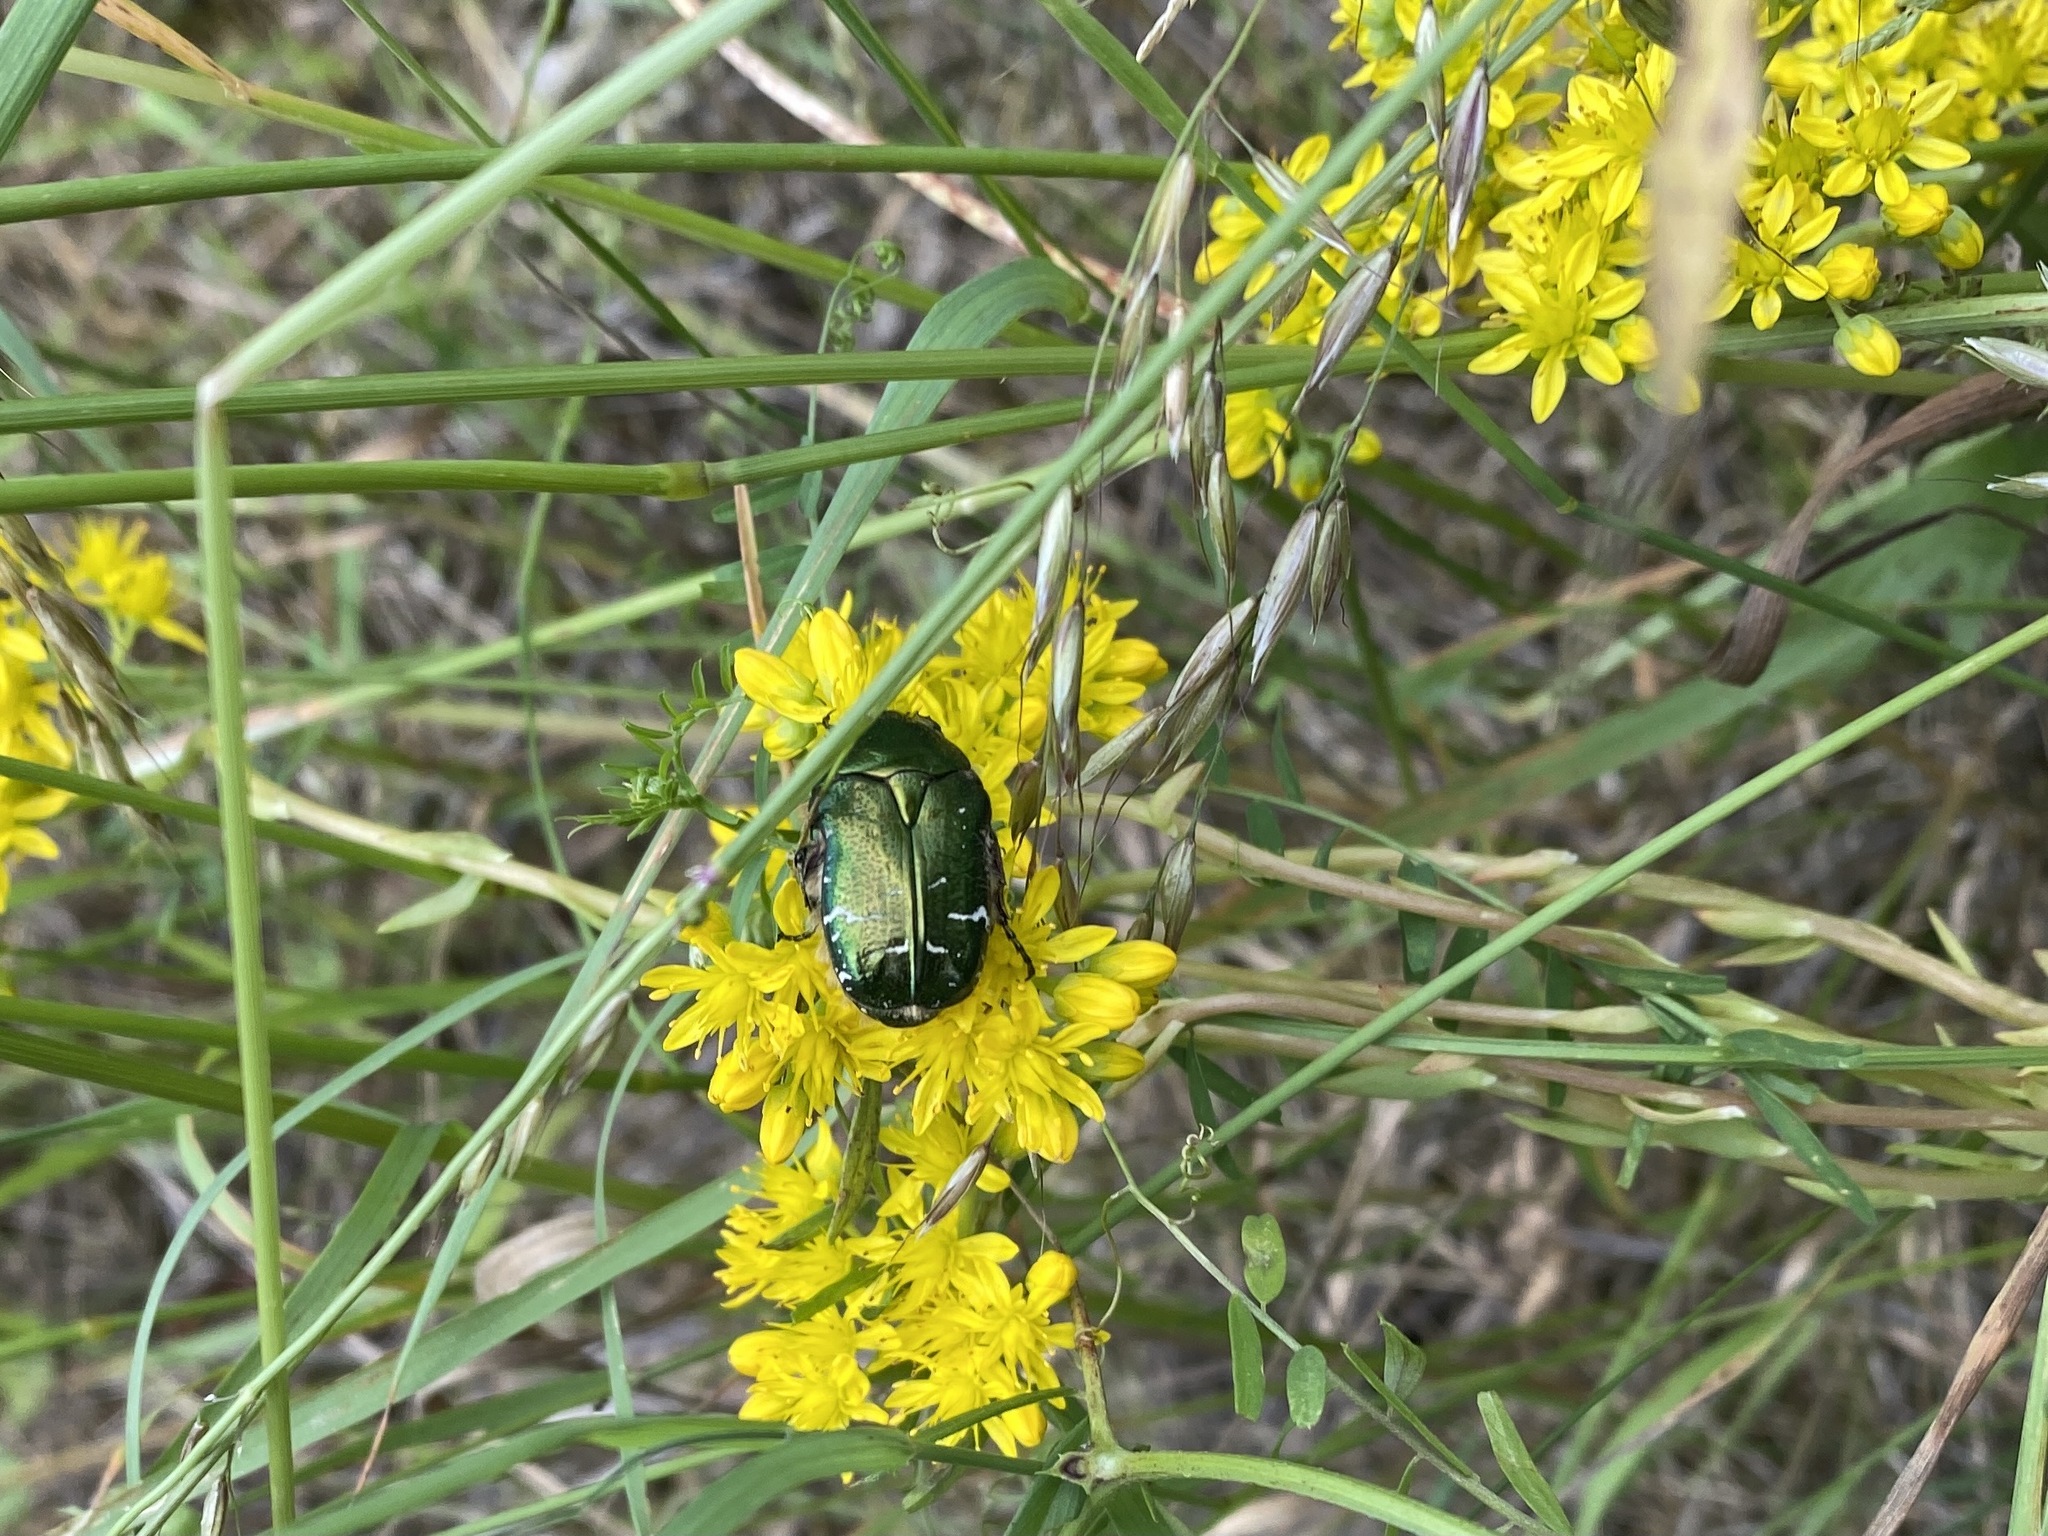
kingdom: Animalia
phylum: Arthropoda
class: Insecta
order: Coleoptera
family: Scarabaeidae
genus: Cetonia
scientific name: Cetonia aurata
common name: Rose chafer
